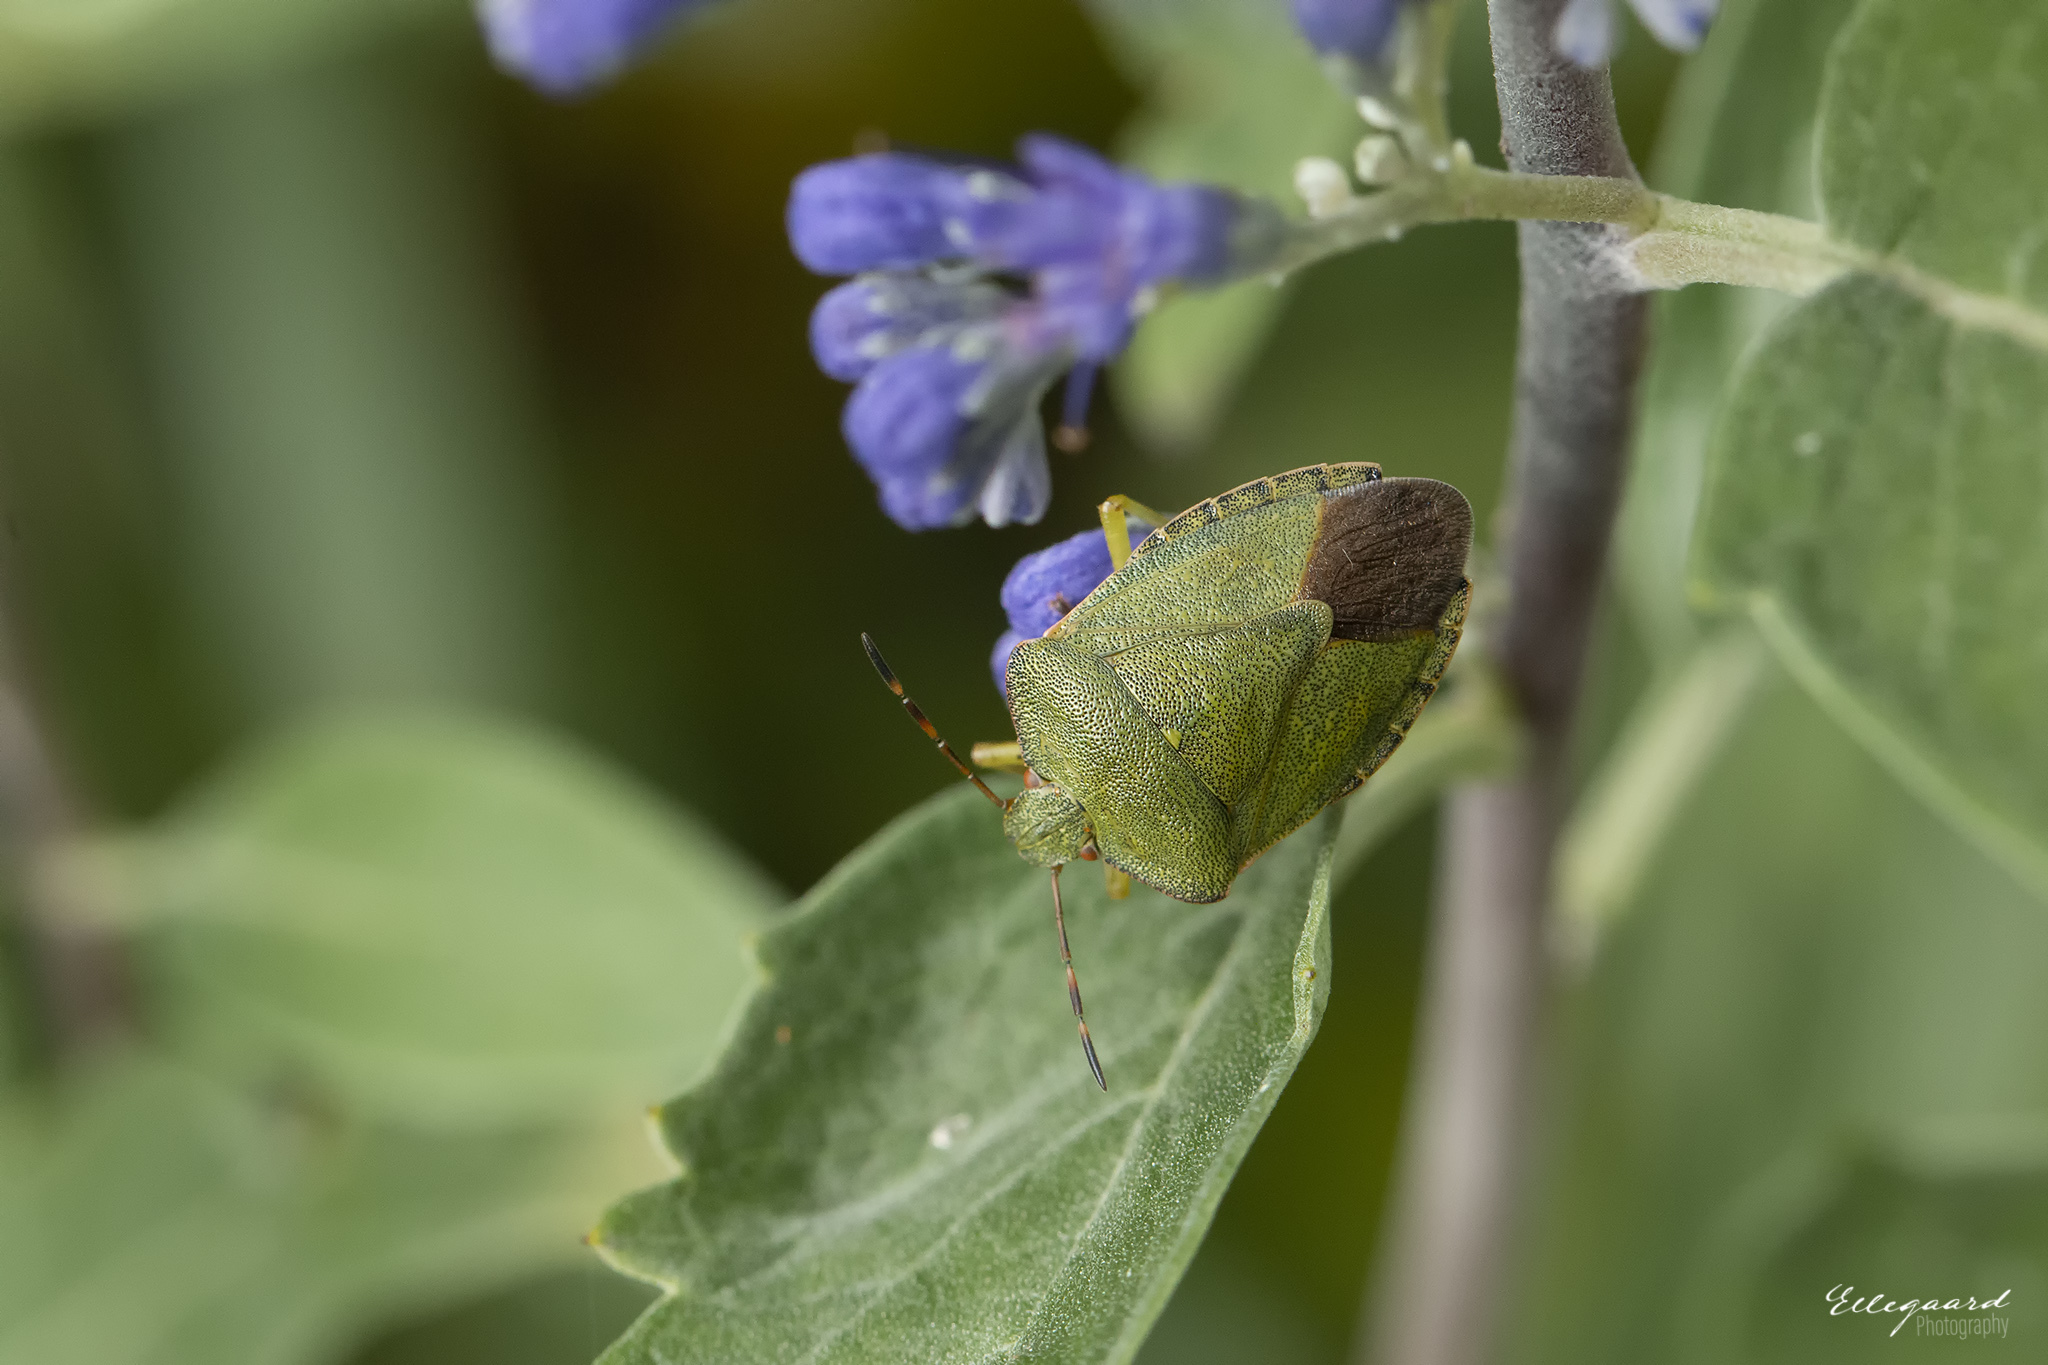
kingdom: Animalia
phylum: Arthropoda
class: Insecta
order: Hemiptera
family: Pentatomidae
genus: Palomena
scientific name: Palomena prasina
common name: Green shieldbug
